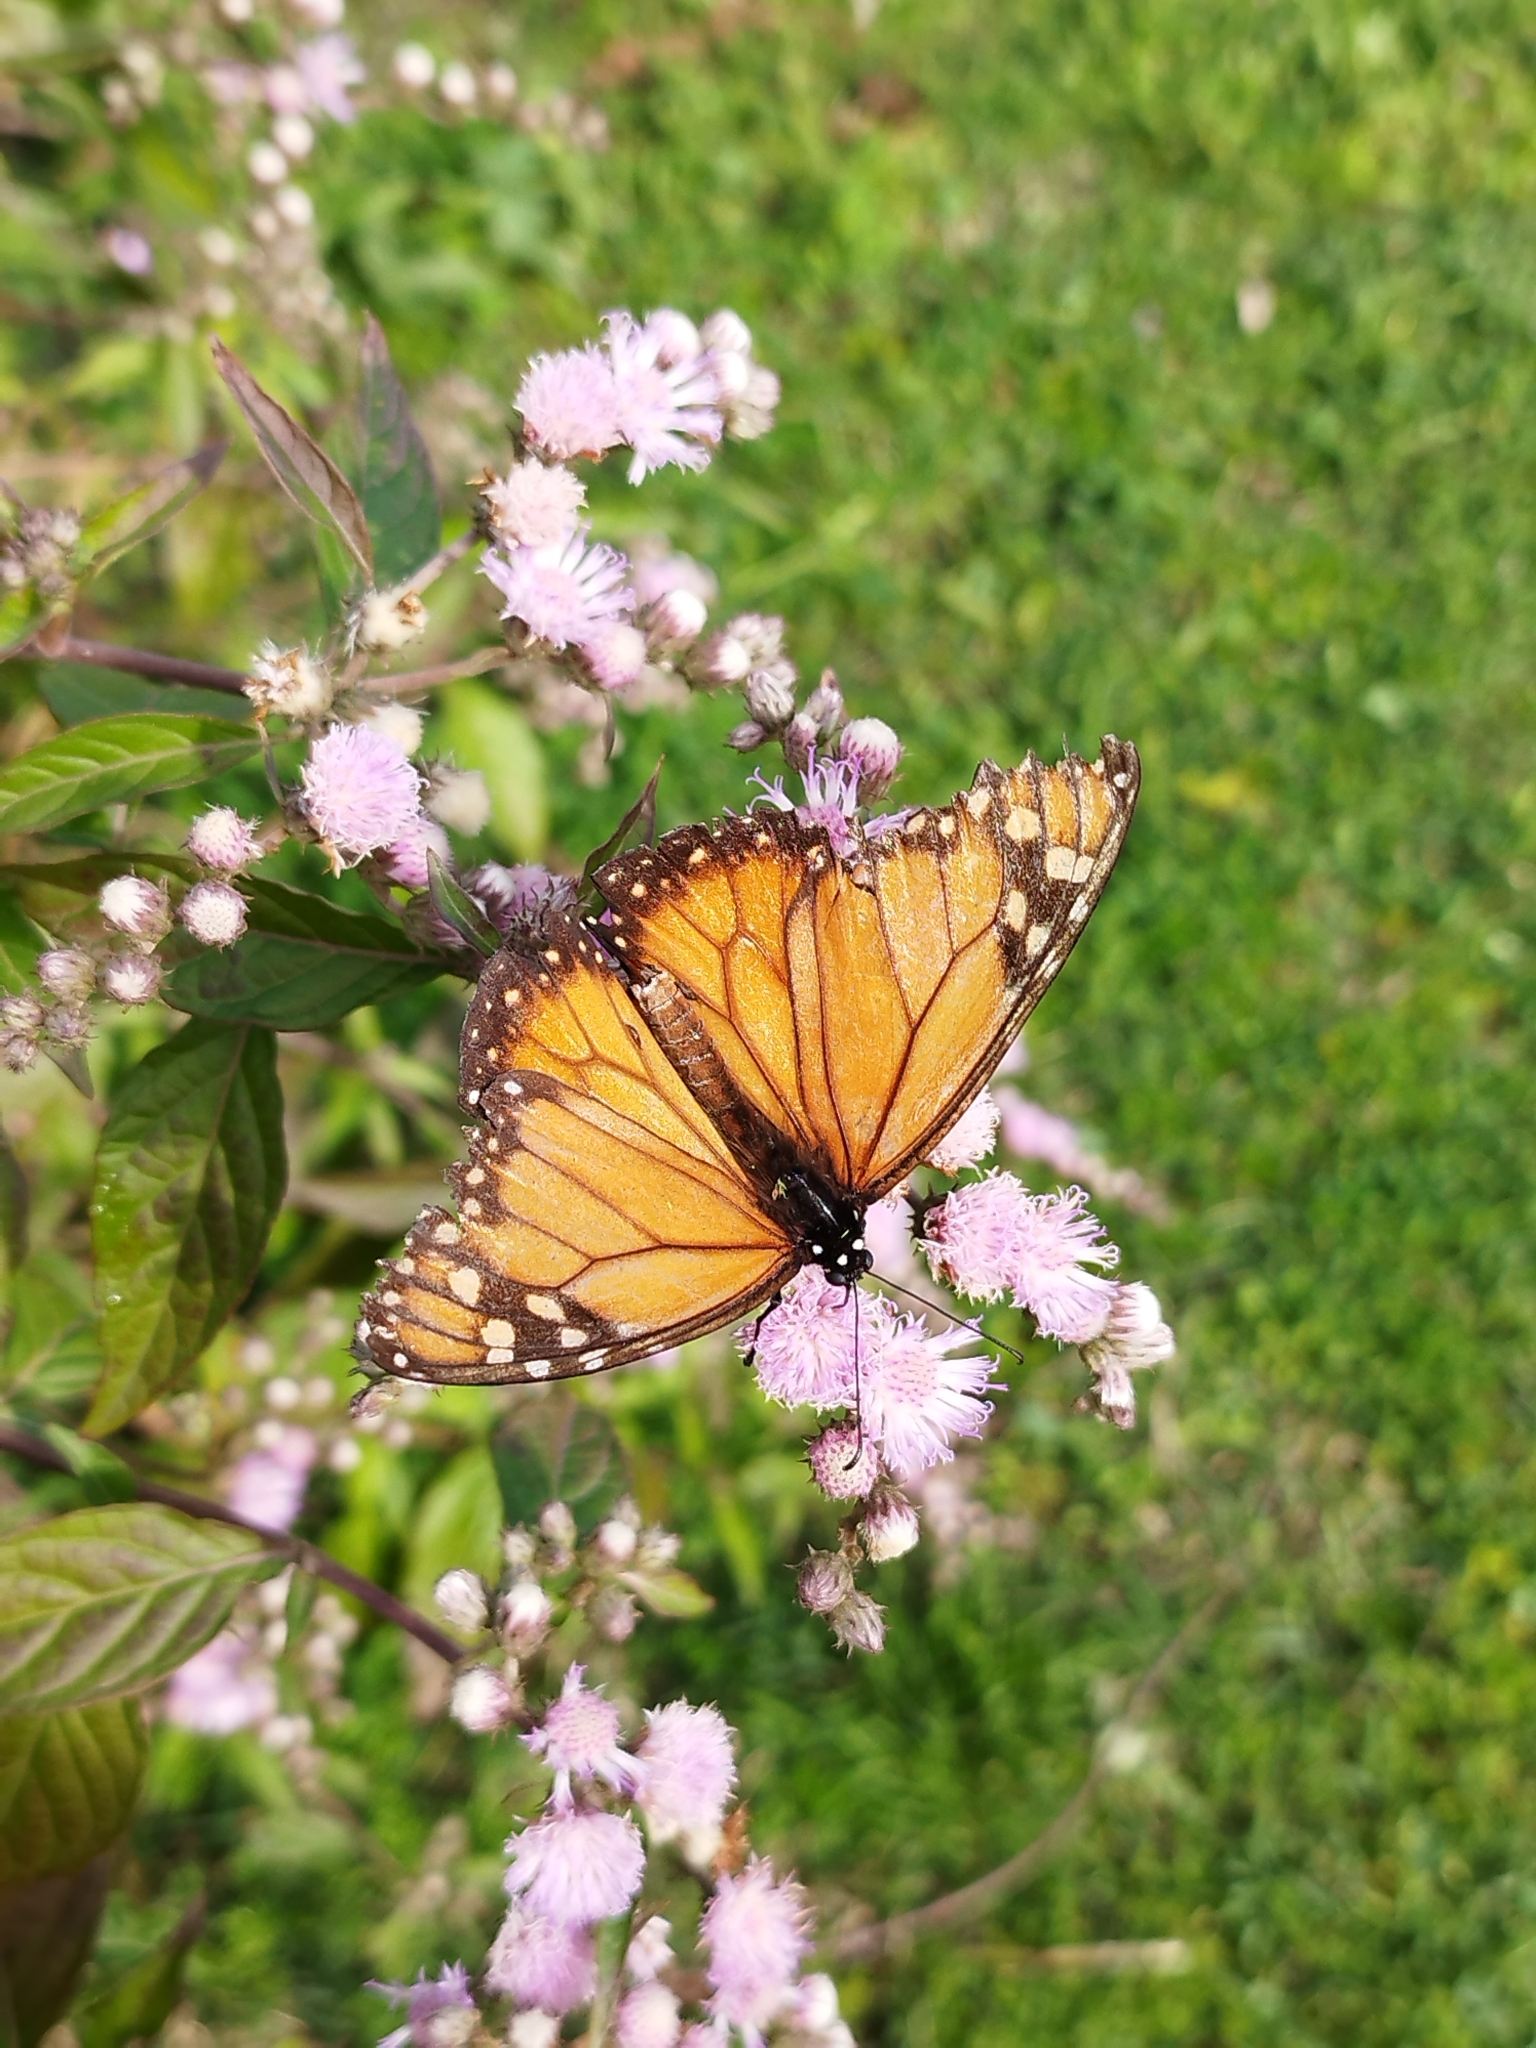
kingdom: Animalia
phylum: Arthropoda
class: Insecta
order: Lepidoptera
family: Nymphalidae
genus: Danaus
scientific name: Danaus erippus
